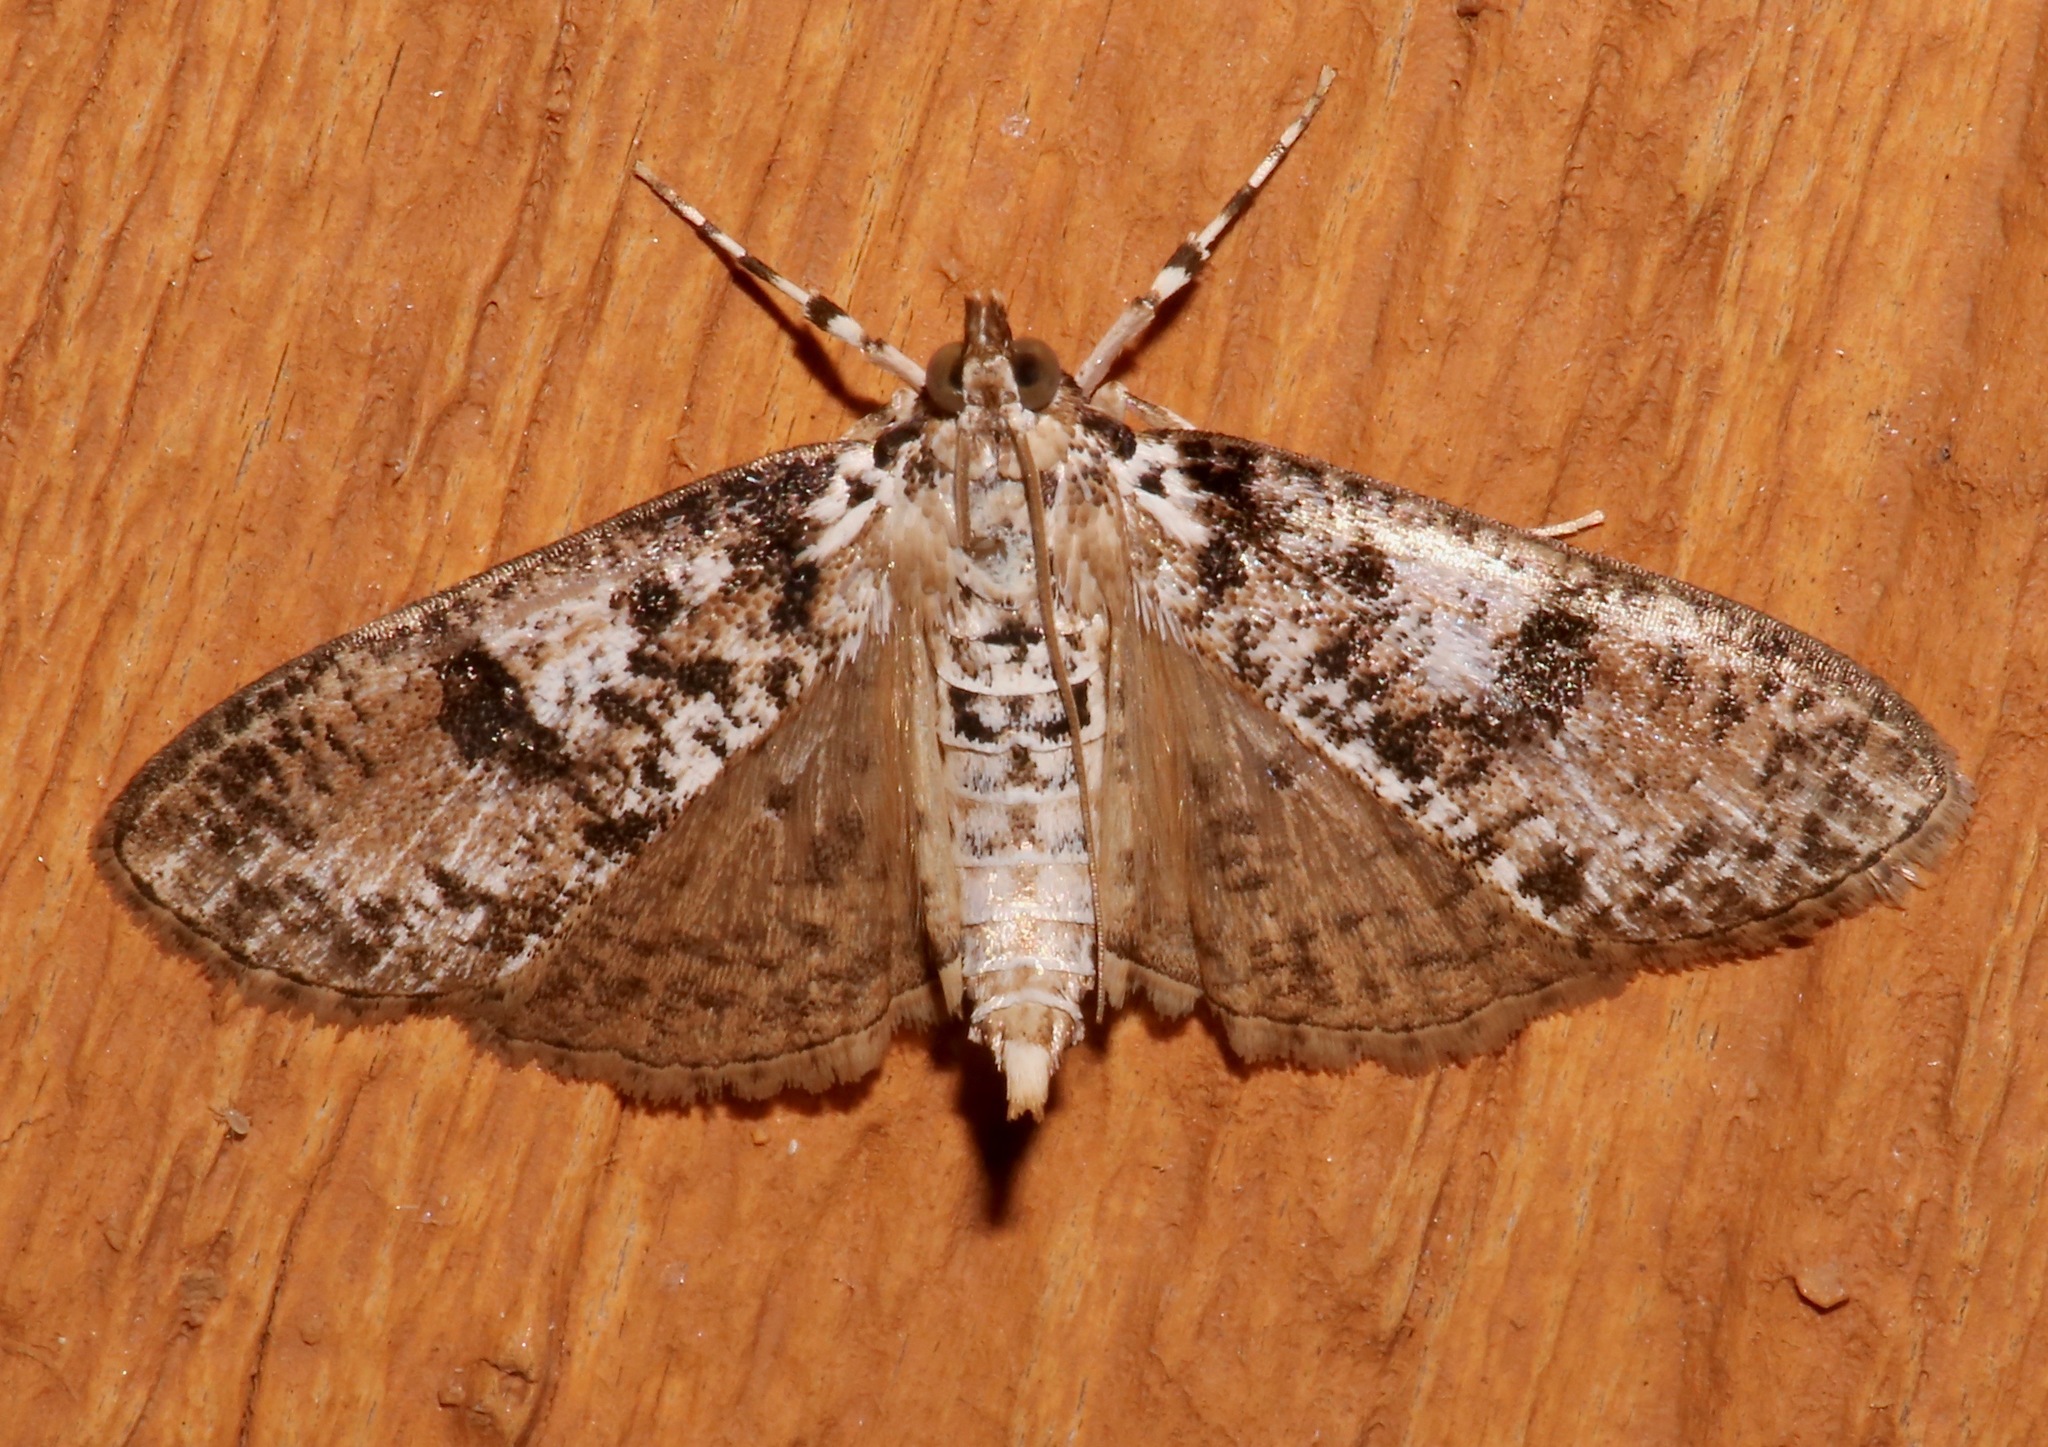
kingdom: Animalia
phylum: Arthropoda
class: Insecta
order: Lepidoptera
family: Crambidae
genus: Palpita
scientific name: Palpita magniferalis
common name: Splendid palpita moth
